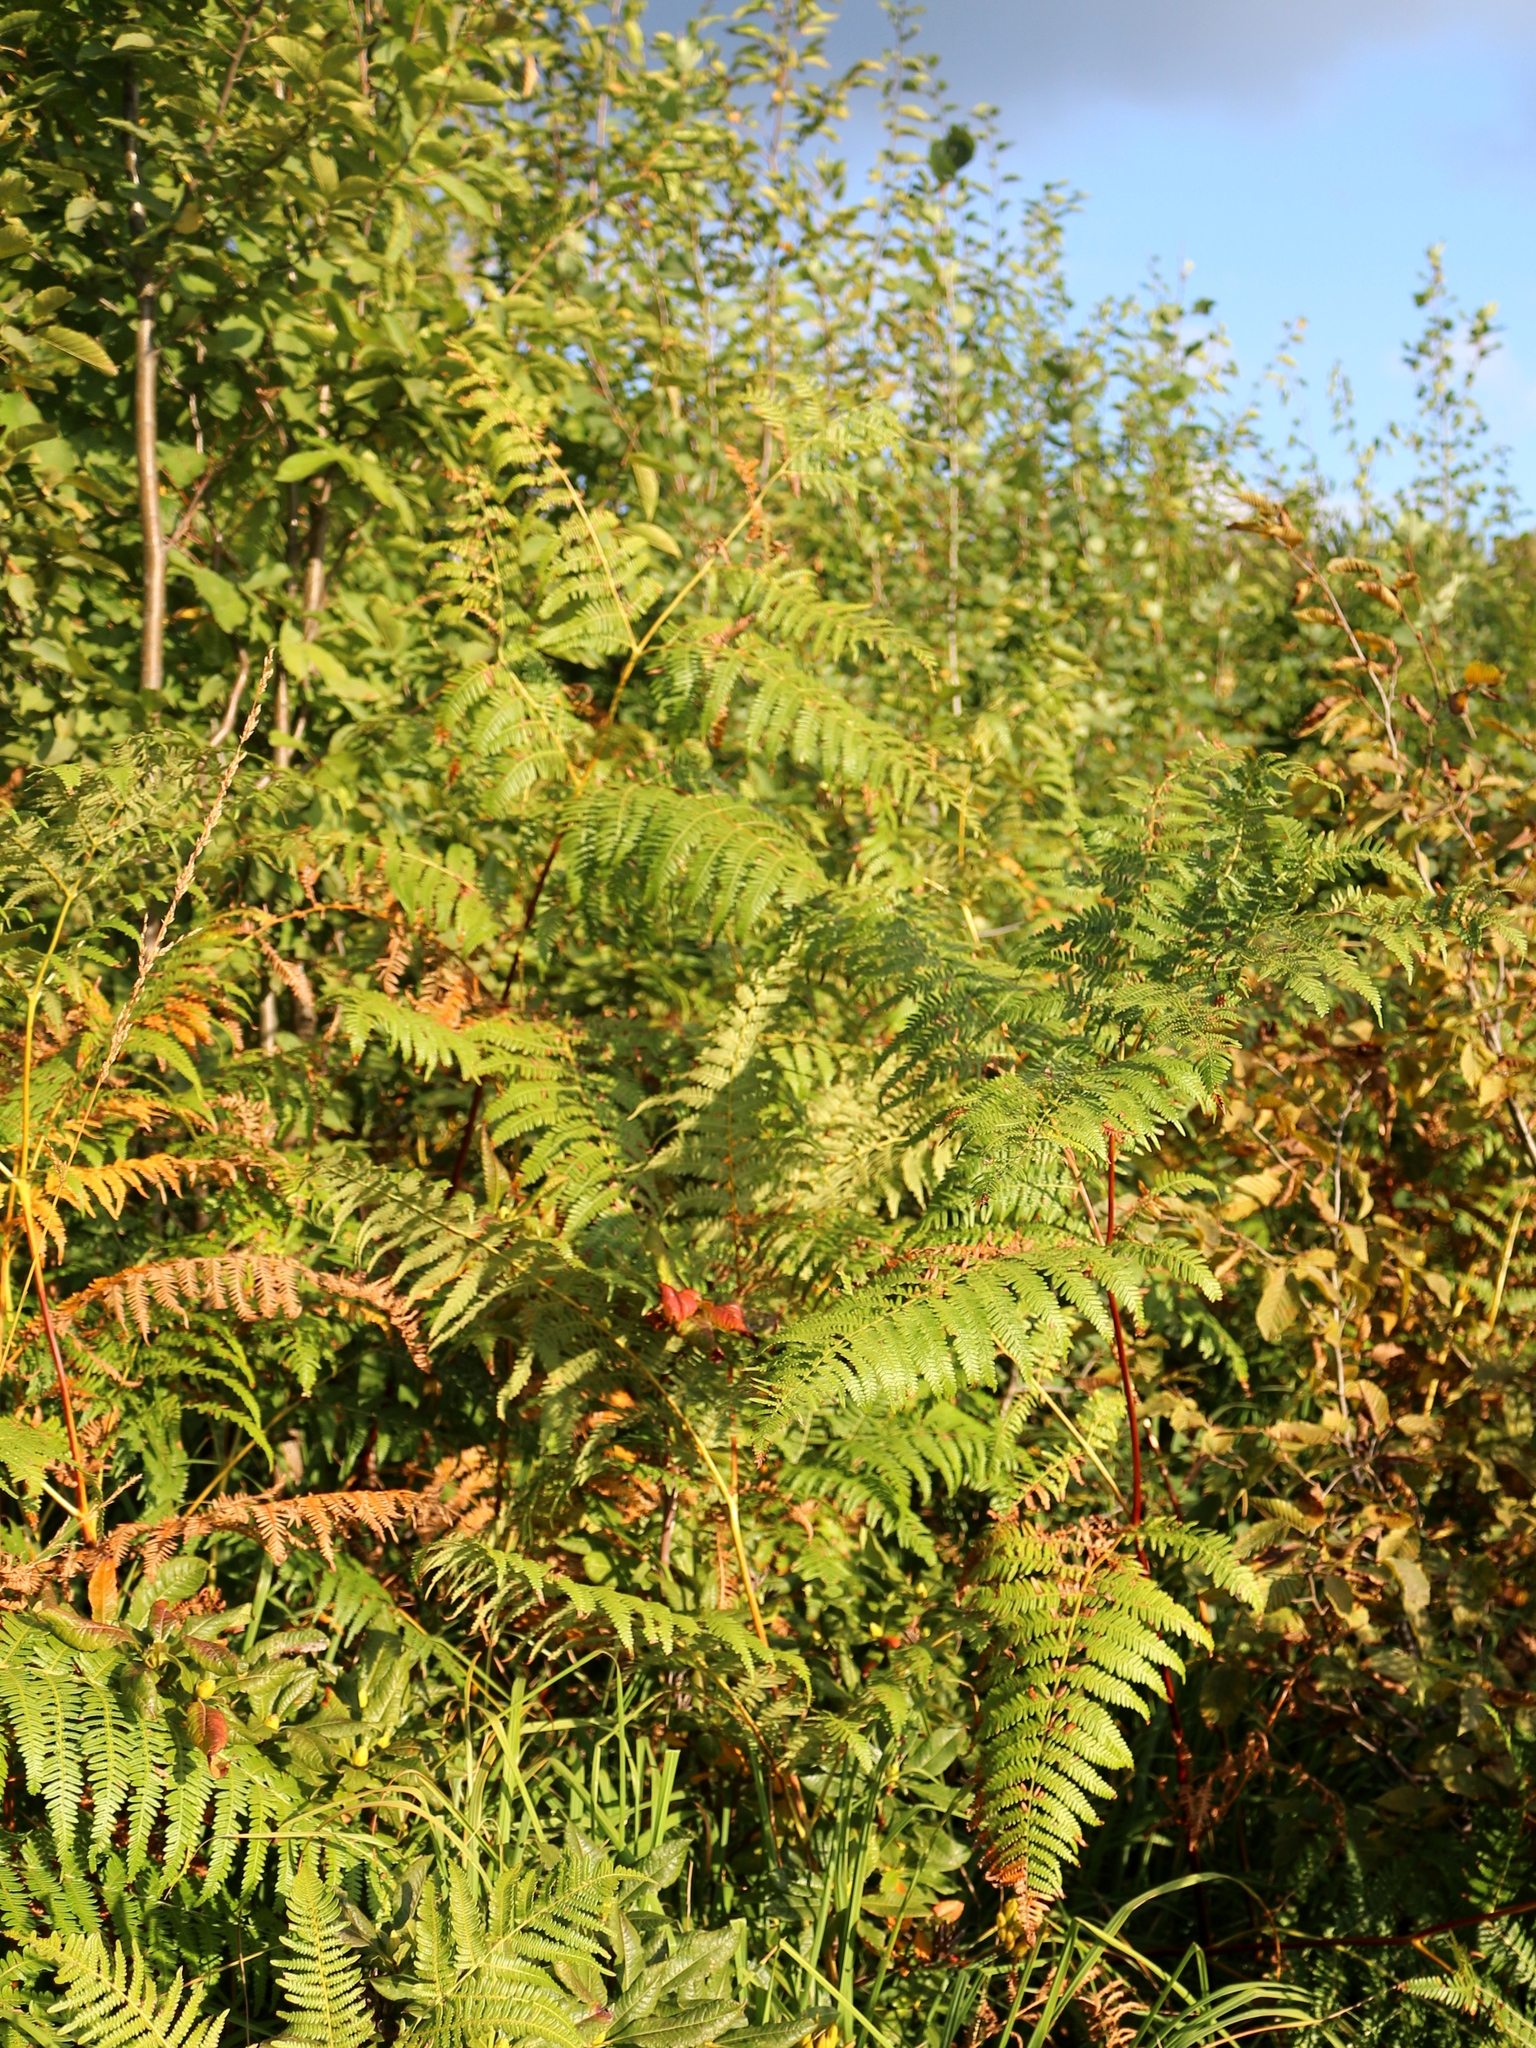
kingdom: Plantae
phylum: Tracheophyta
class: Polypodiopsida
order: Polypodiales
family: Dennstaedtiaceae
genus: Pteridium
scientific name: Pteridium tauricum
